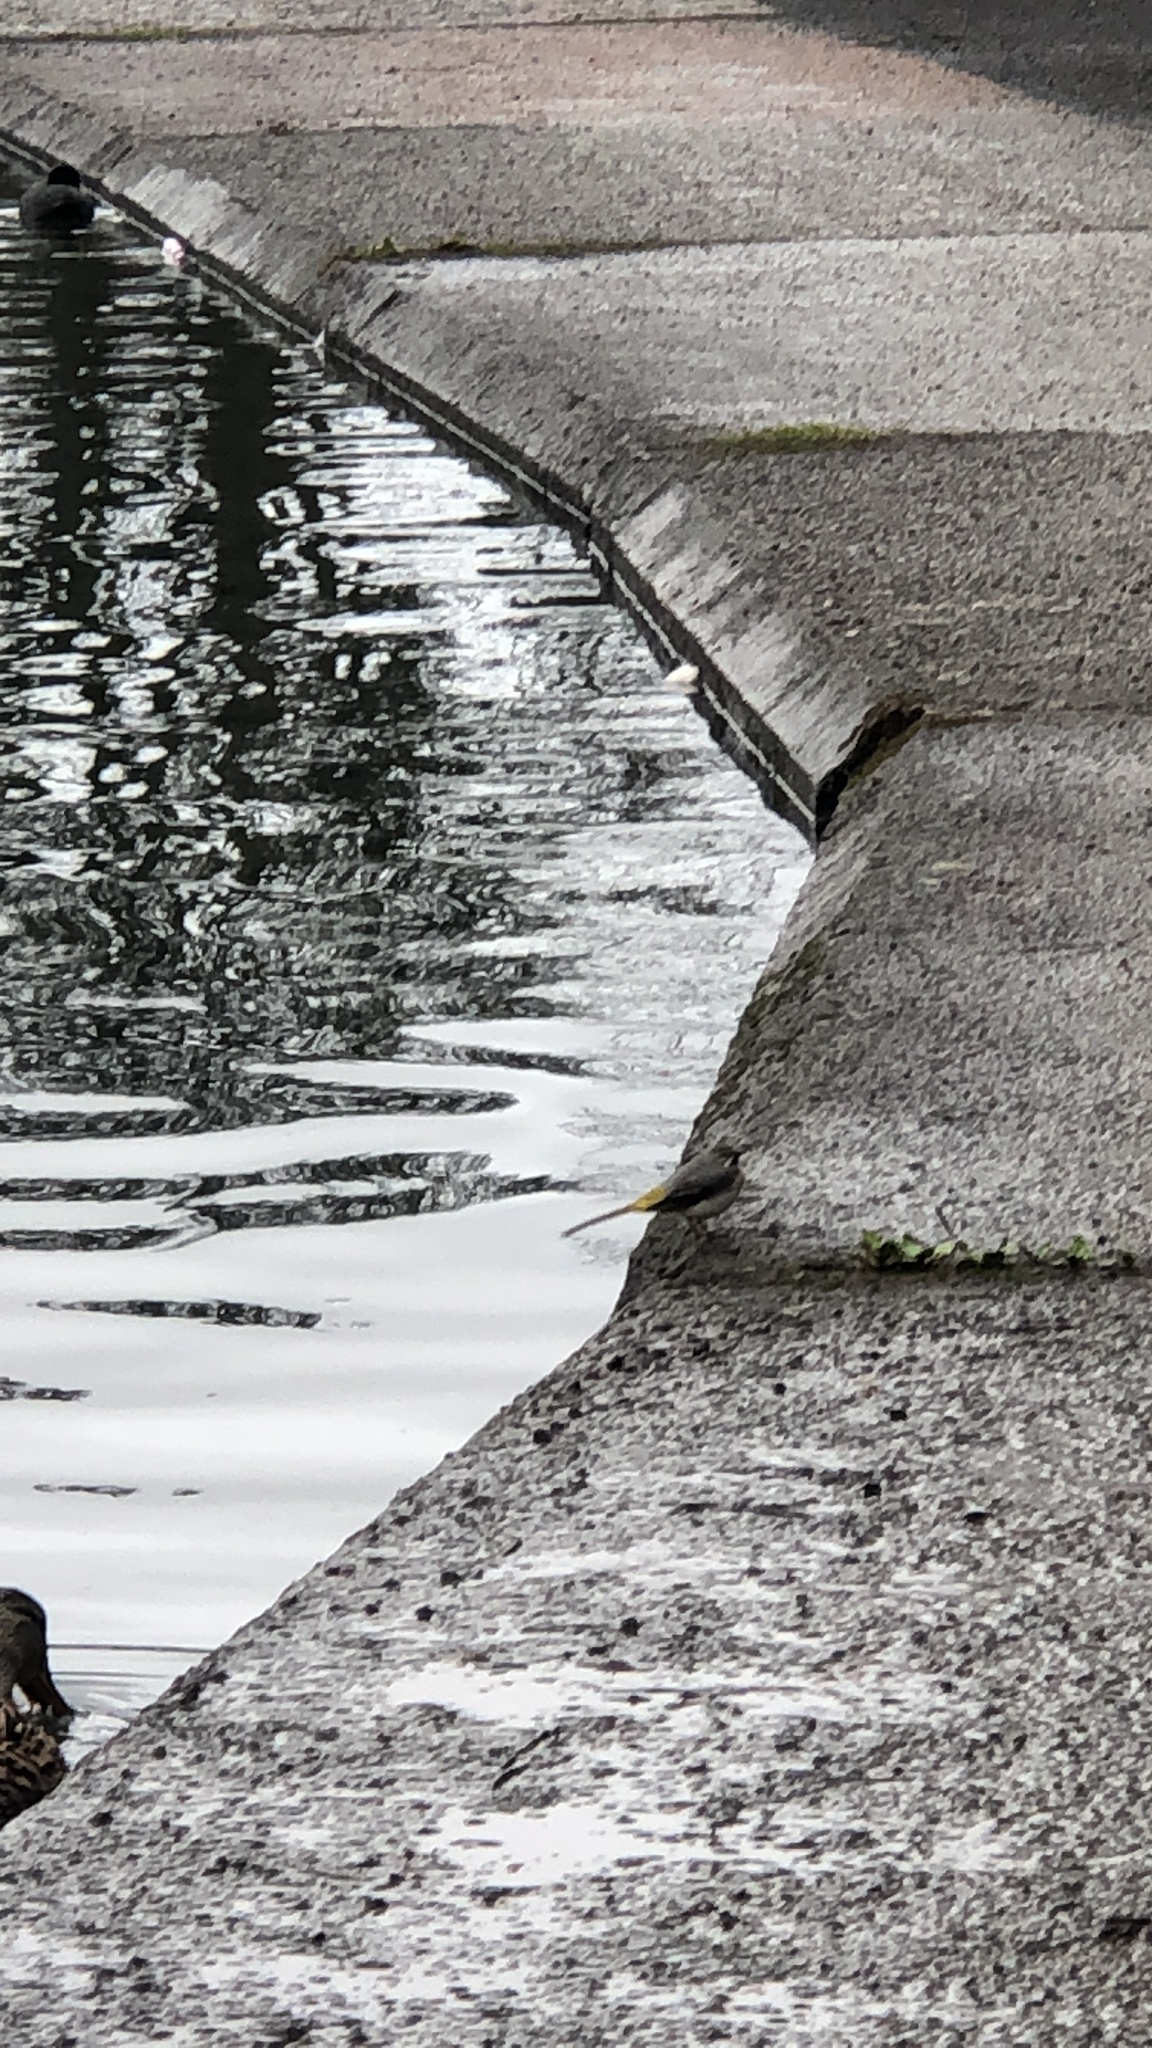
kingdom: Animalia
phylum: Chordata
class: Aves
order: Passeriformes
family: Motacillidae
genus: Motacilla
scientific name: Motacilla cinerea
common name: Grey wagtail
